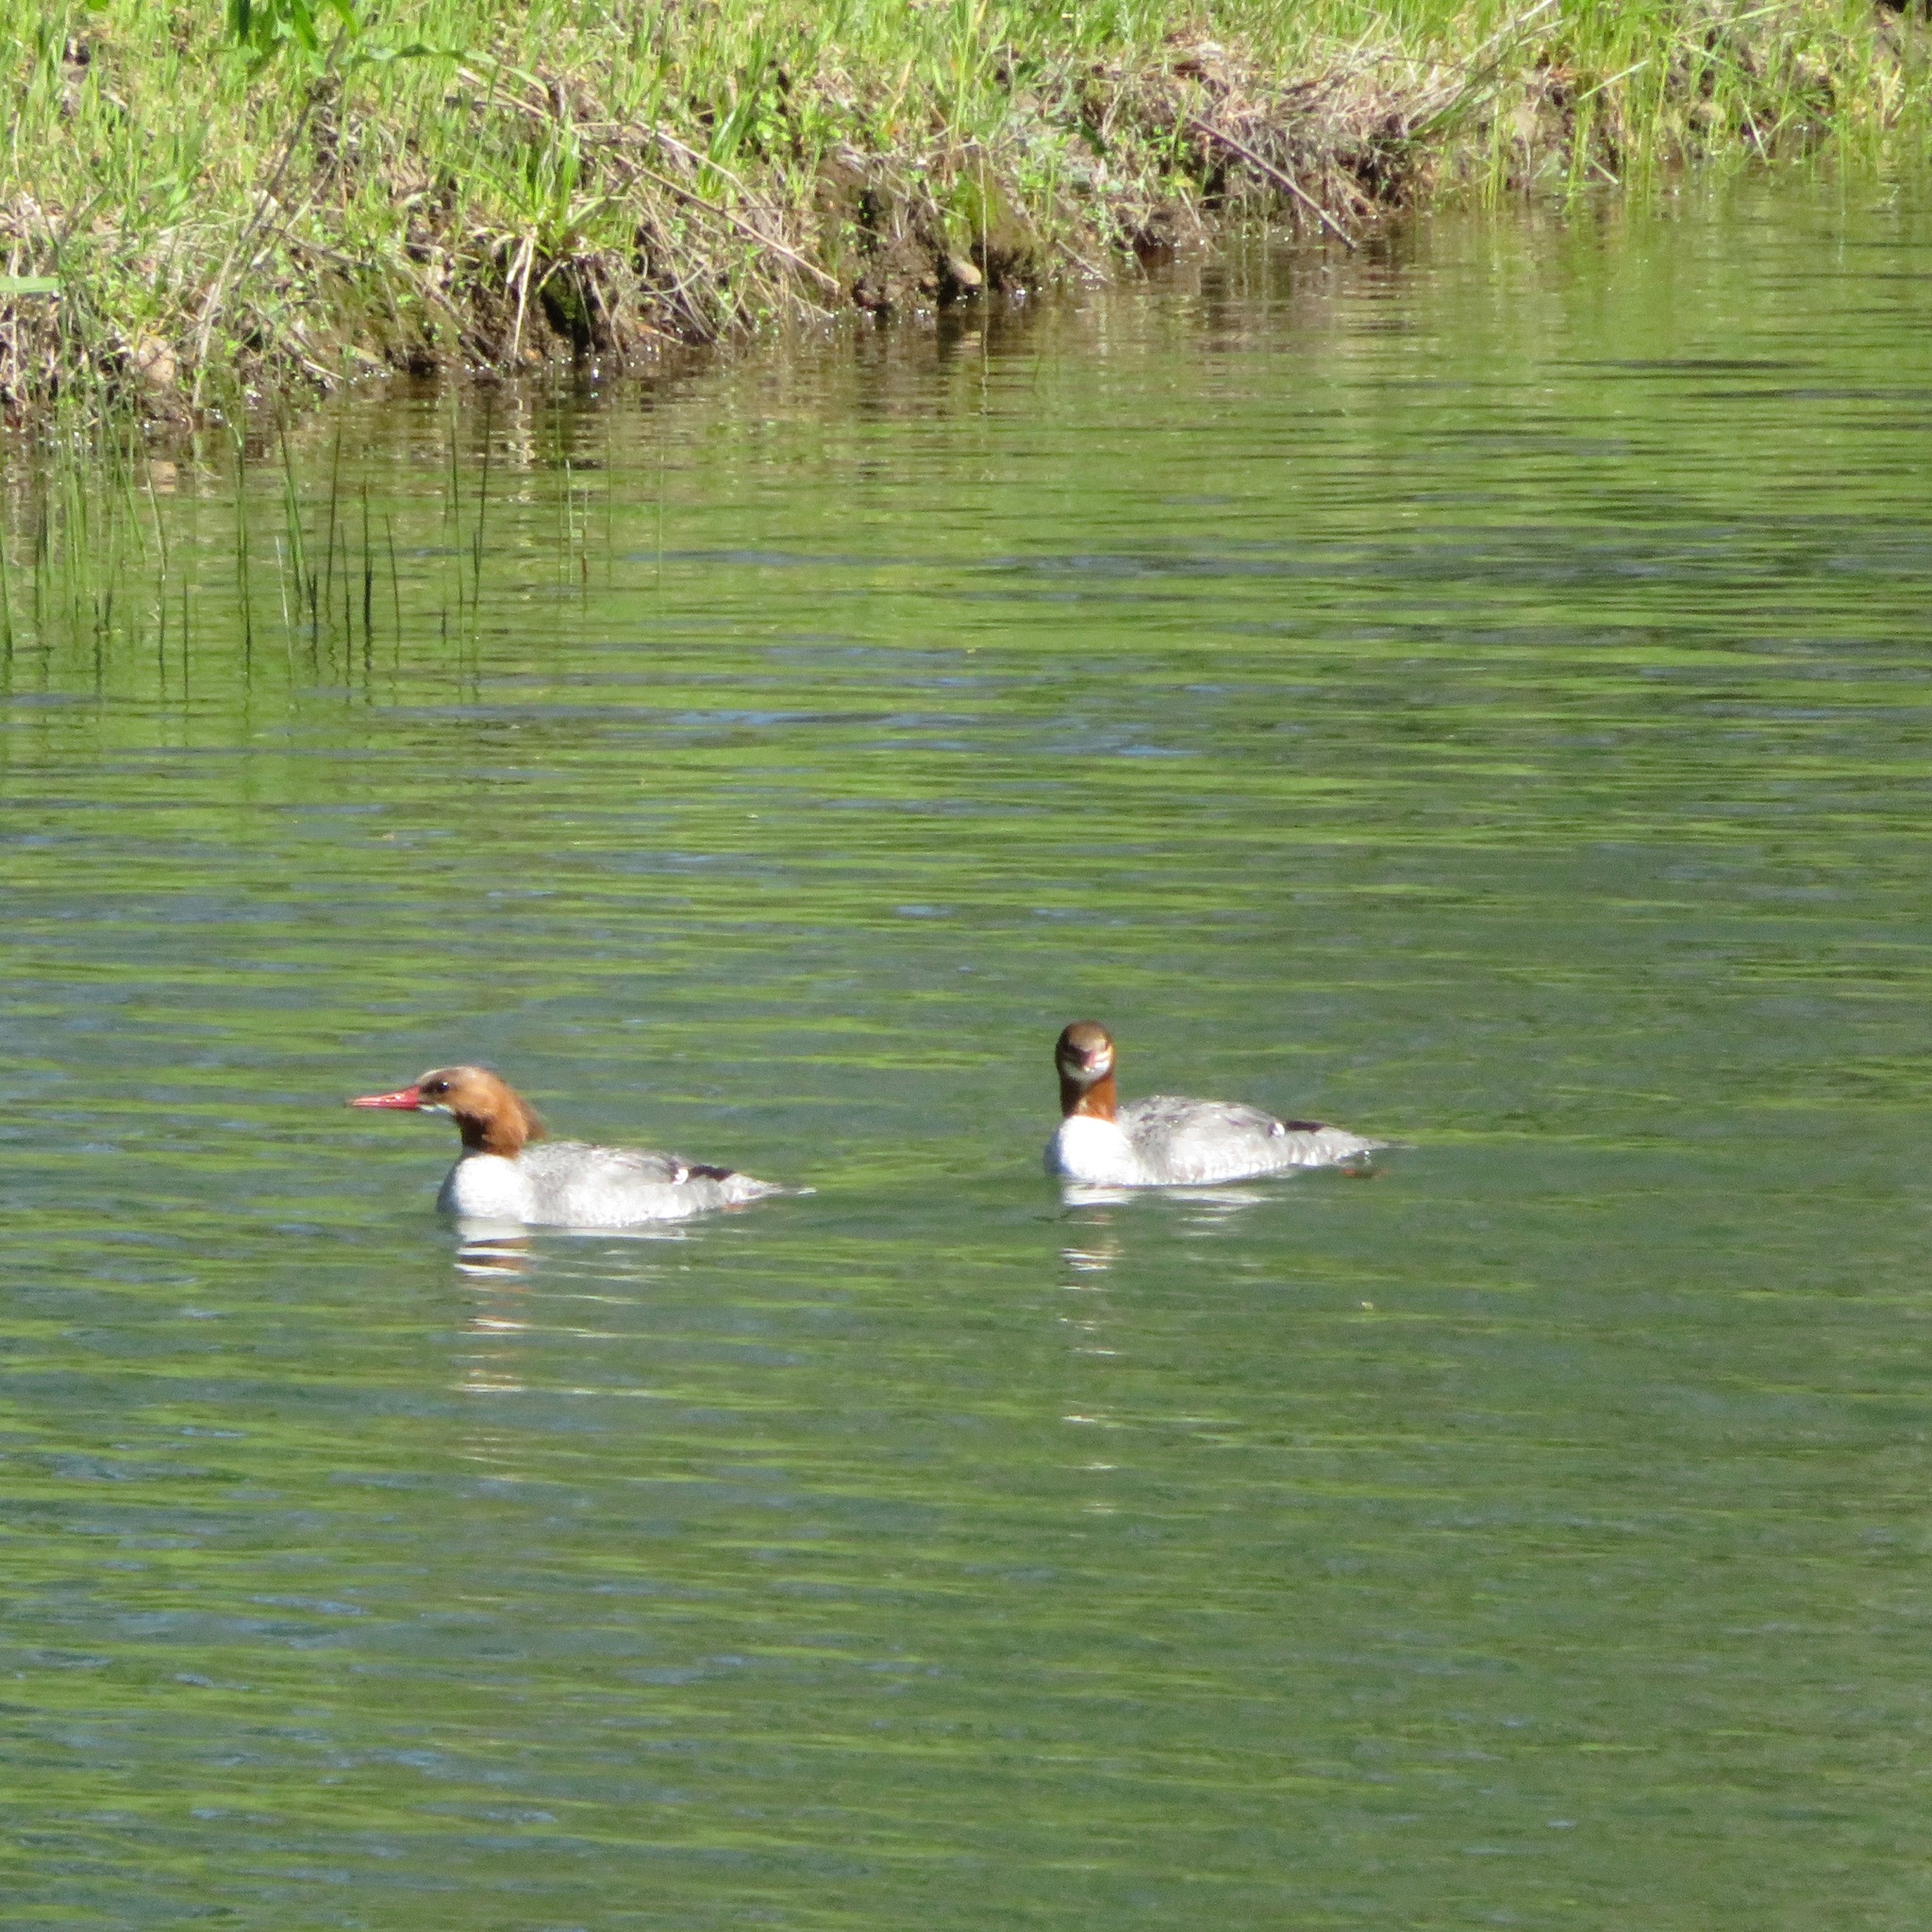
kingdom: Animalia
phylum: Chordata
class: Aves
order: Anseriformes
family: Anatidae
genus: Mergus
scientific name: Mergus merganser
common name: Common merganser
